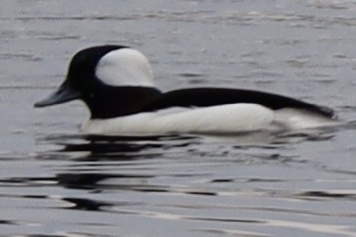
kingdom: Animalia
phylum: Chordata
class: Aves
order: Anseriformes
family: Anatidae
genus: Bucephala
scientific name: Bucephala albeola
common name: Bufflehead
